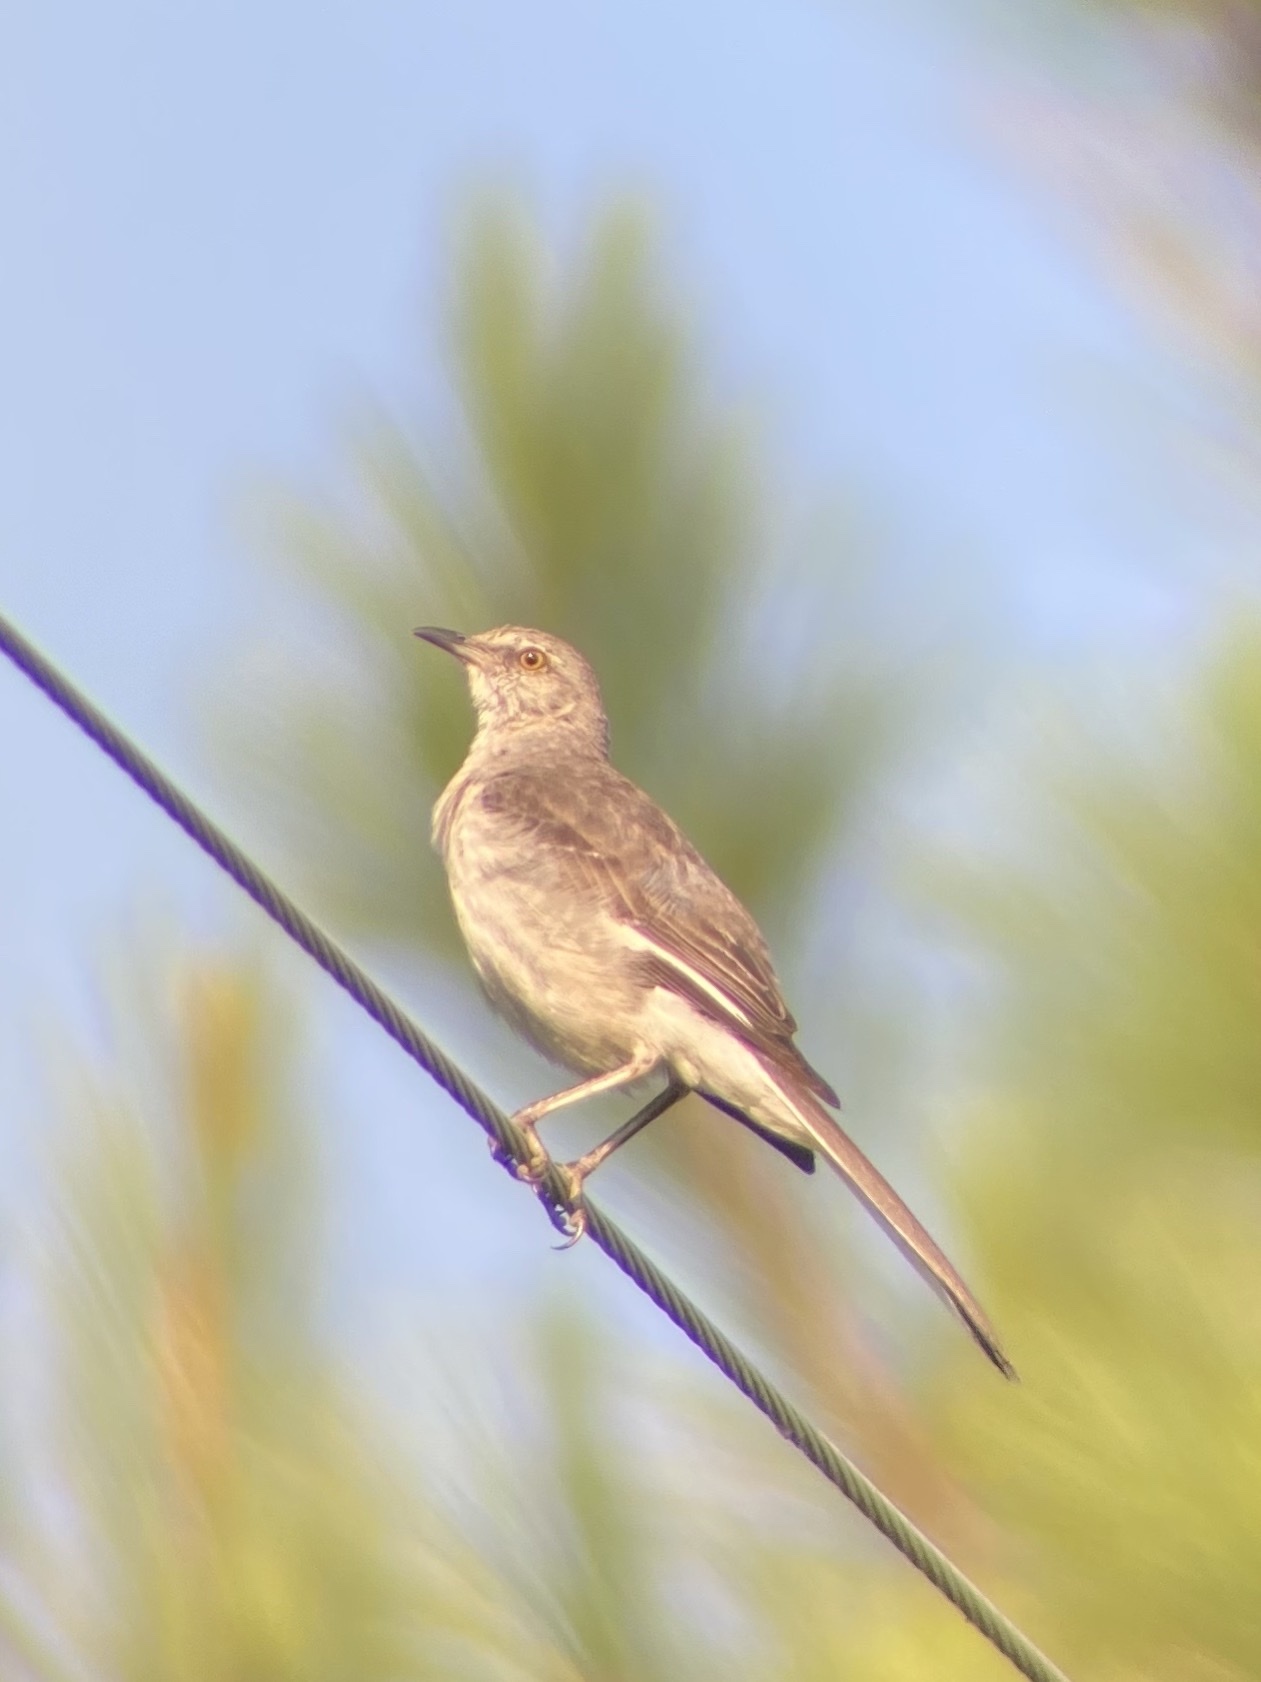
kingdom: Animalia
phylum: Chordata
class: Aves
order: Passeriformes
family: Mimidae
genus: Mimus
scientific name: Mimus polyglottos
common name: Northern mockingbird
